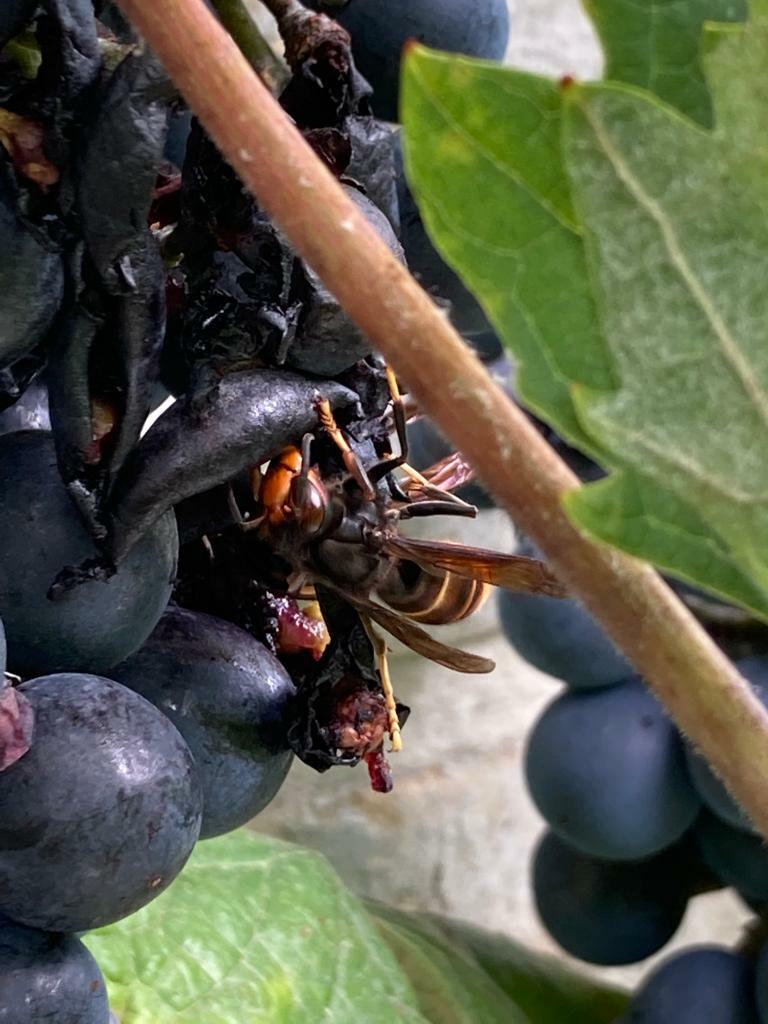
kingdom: Animalia
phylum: Arthropoda
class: Insecta
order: Hymenoptera
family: Vespidae
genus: Vespa
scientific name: Vespa velutina
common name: Asian hornet
